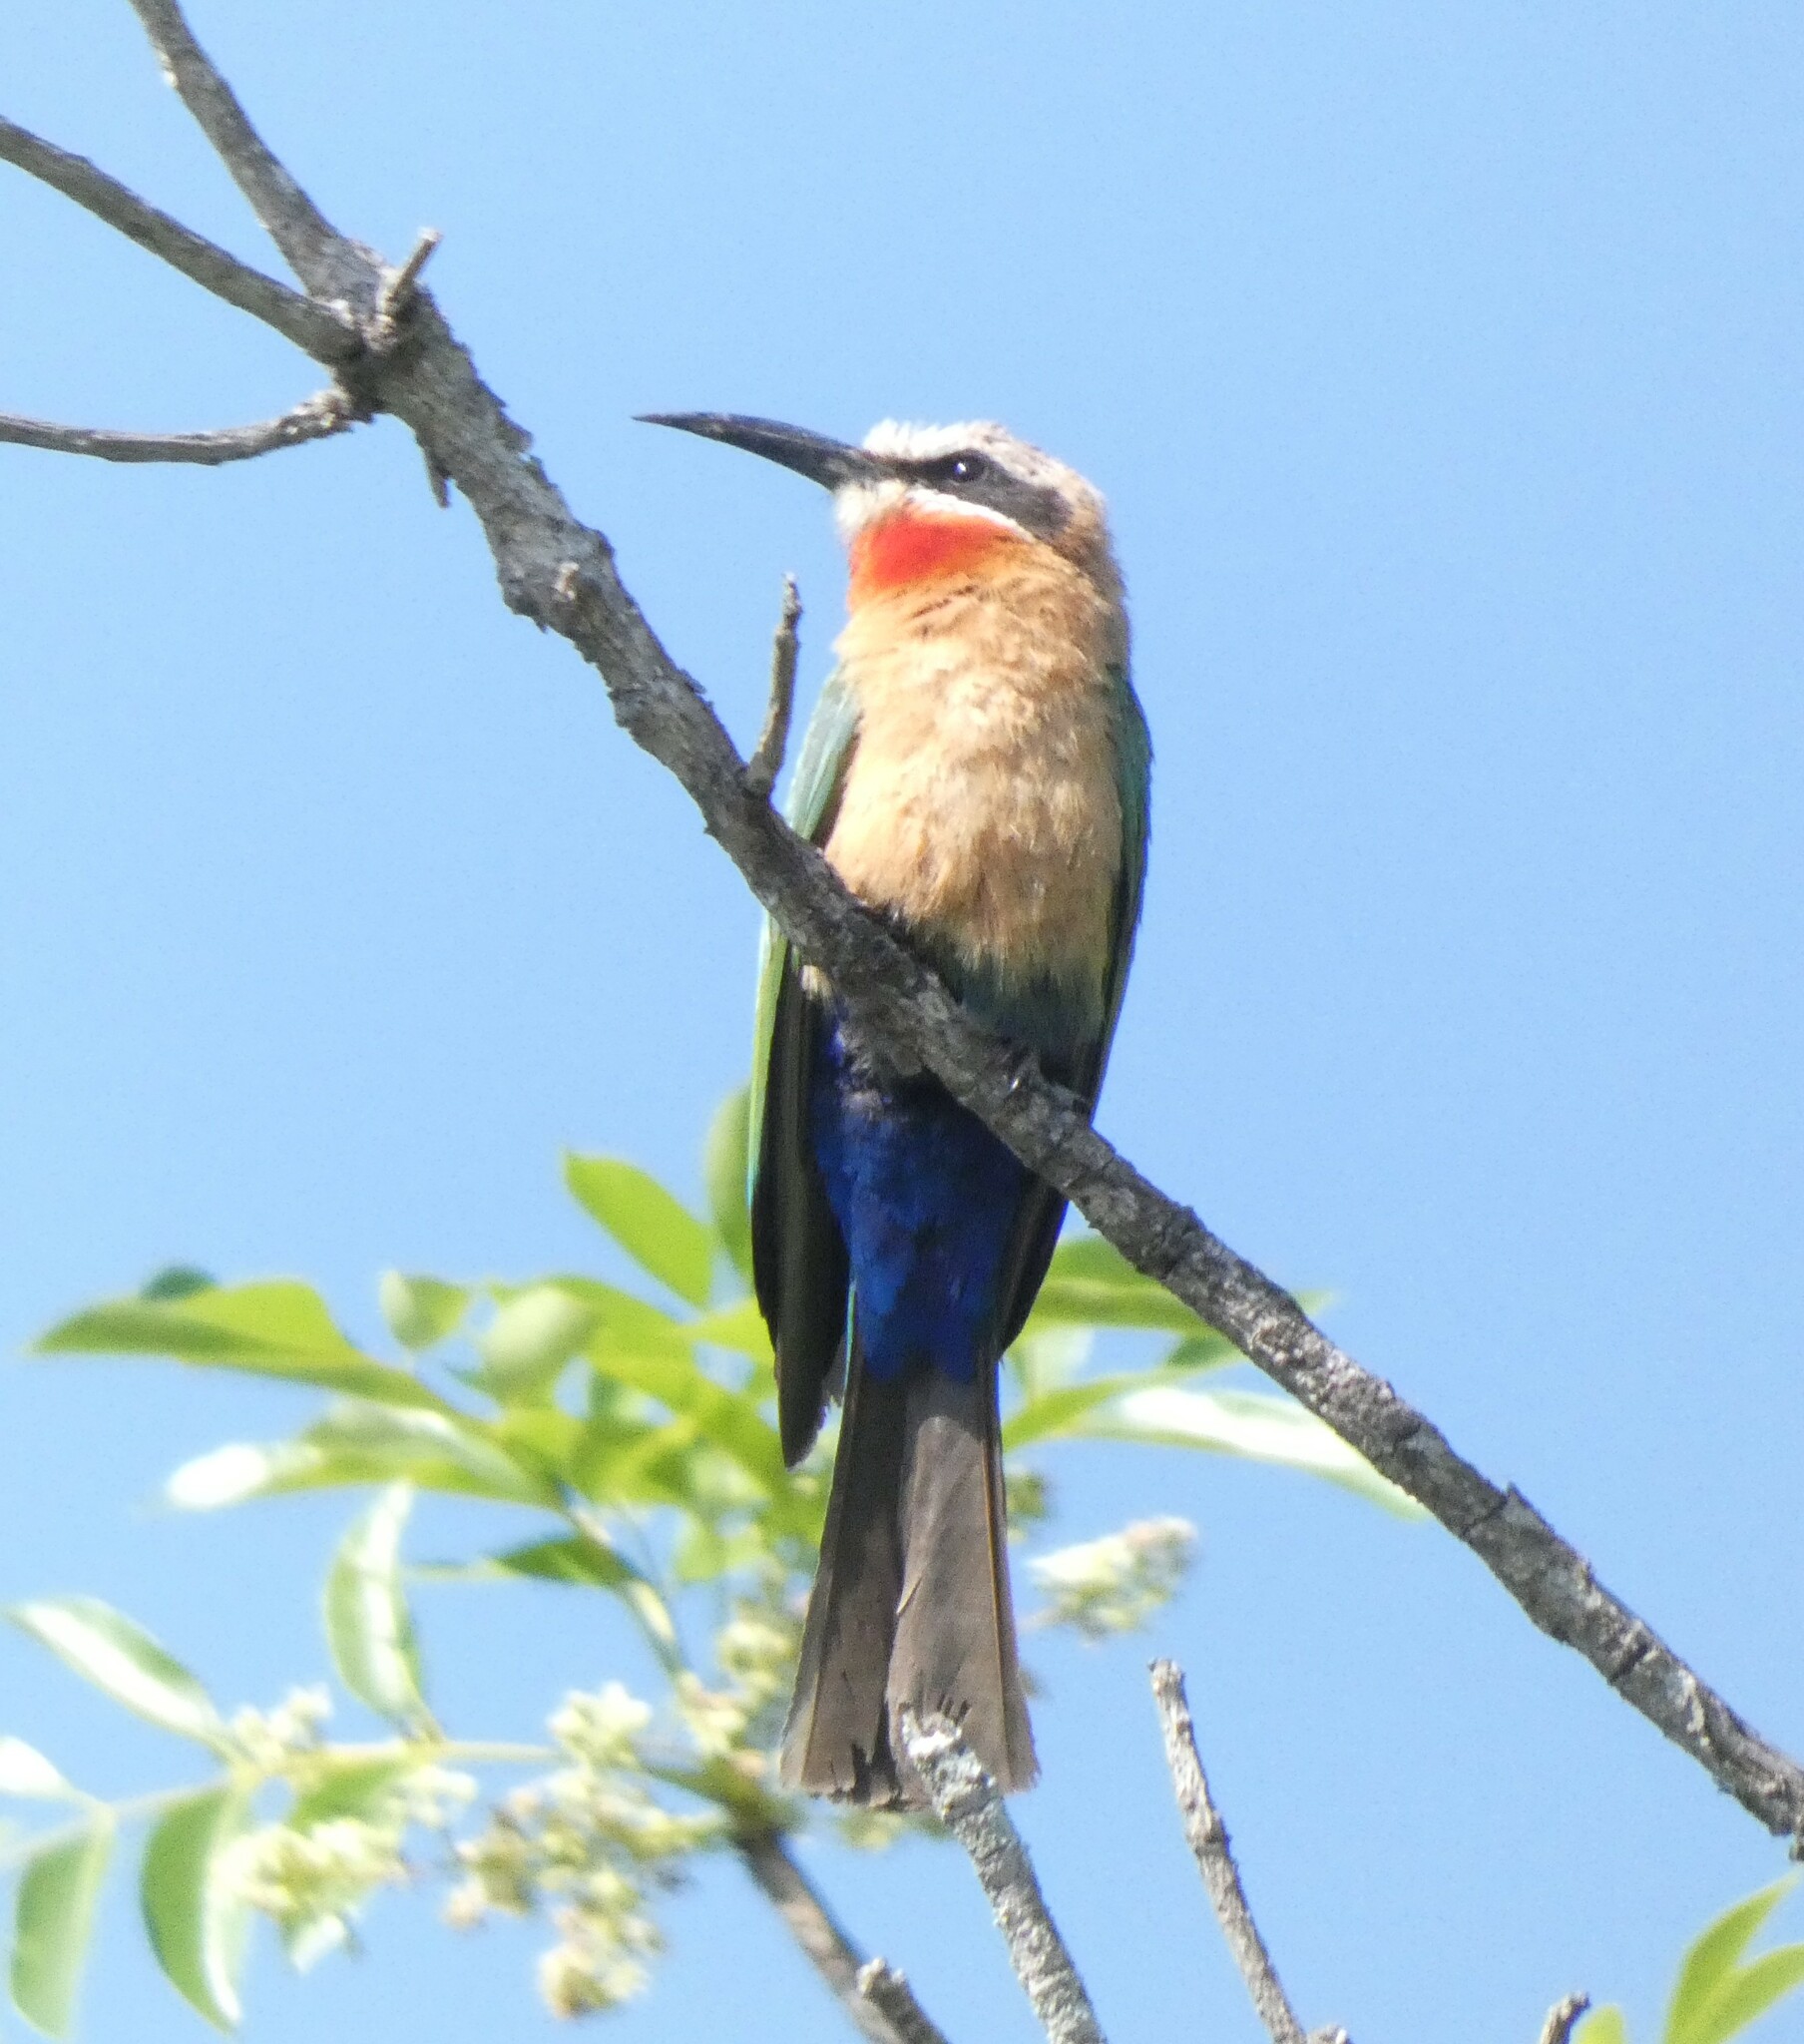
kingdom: Animalia
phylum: Chordata
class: Aves
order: Coraciiformes
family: Meropidae
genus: Merops
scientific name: Merops bullockoides
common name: White-fronted bee-eater
